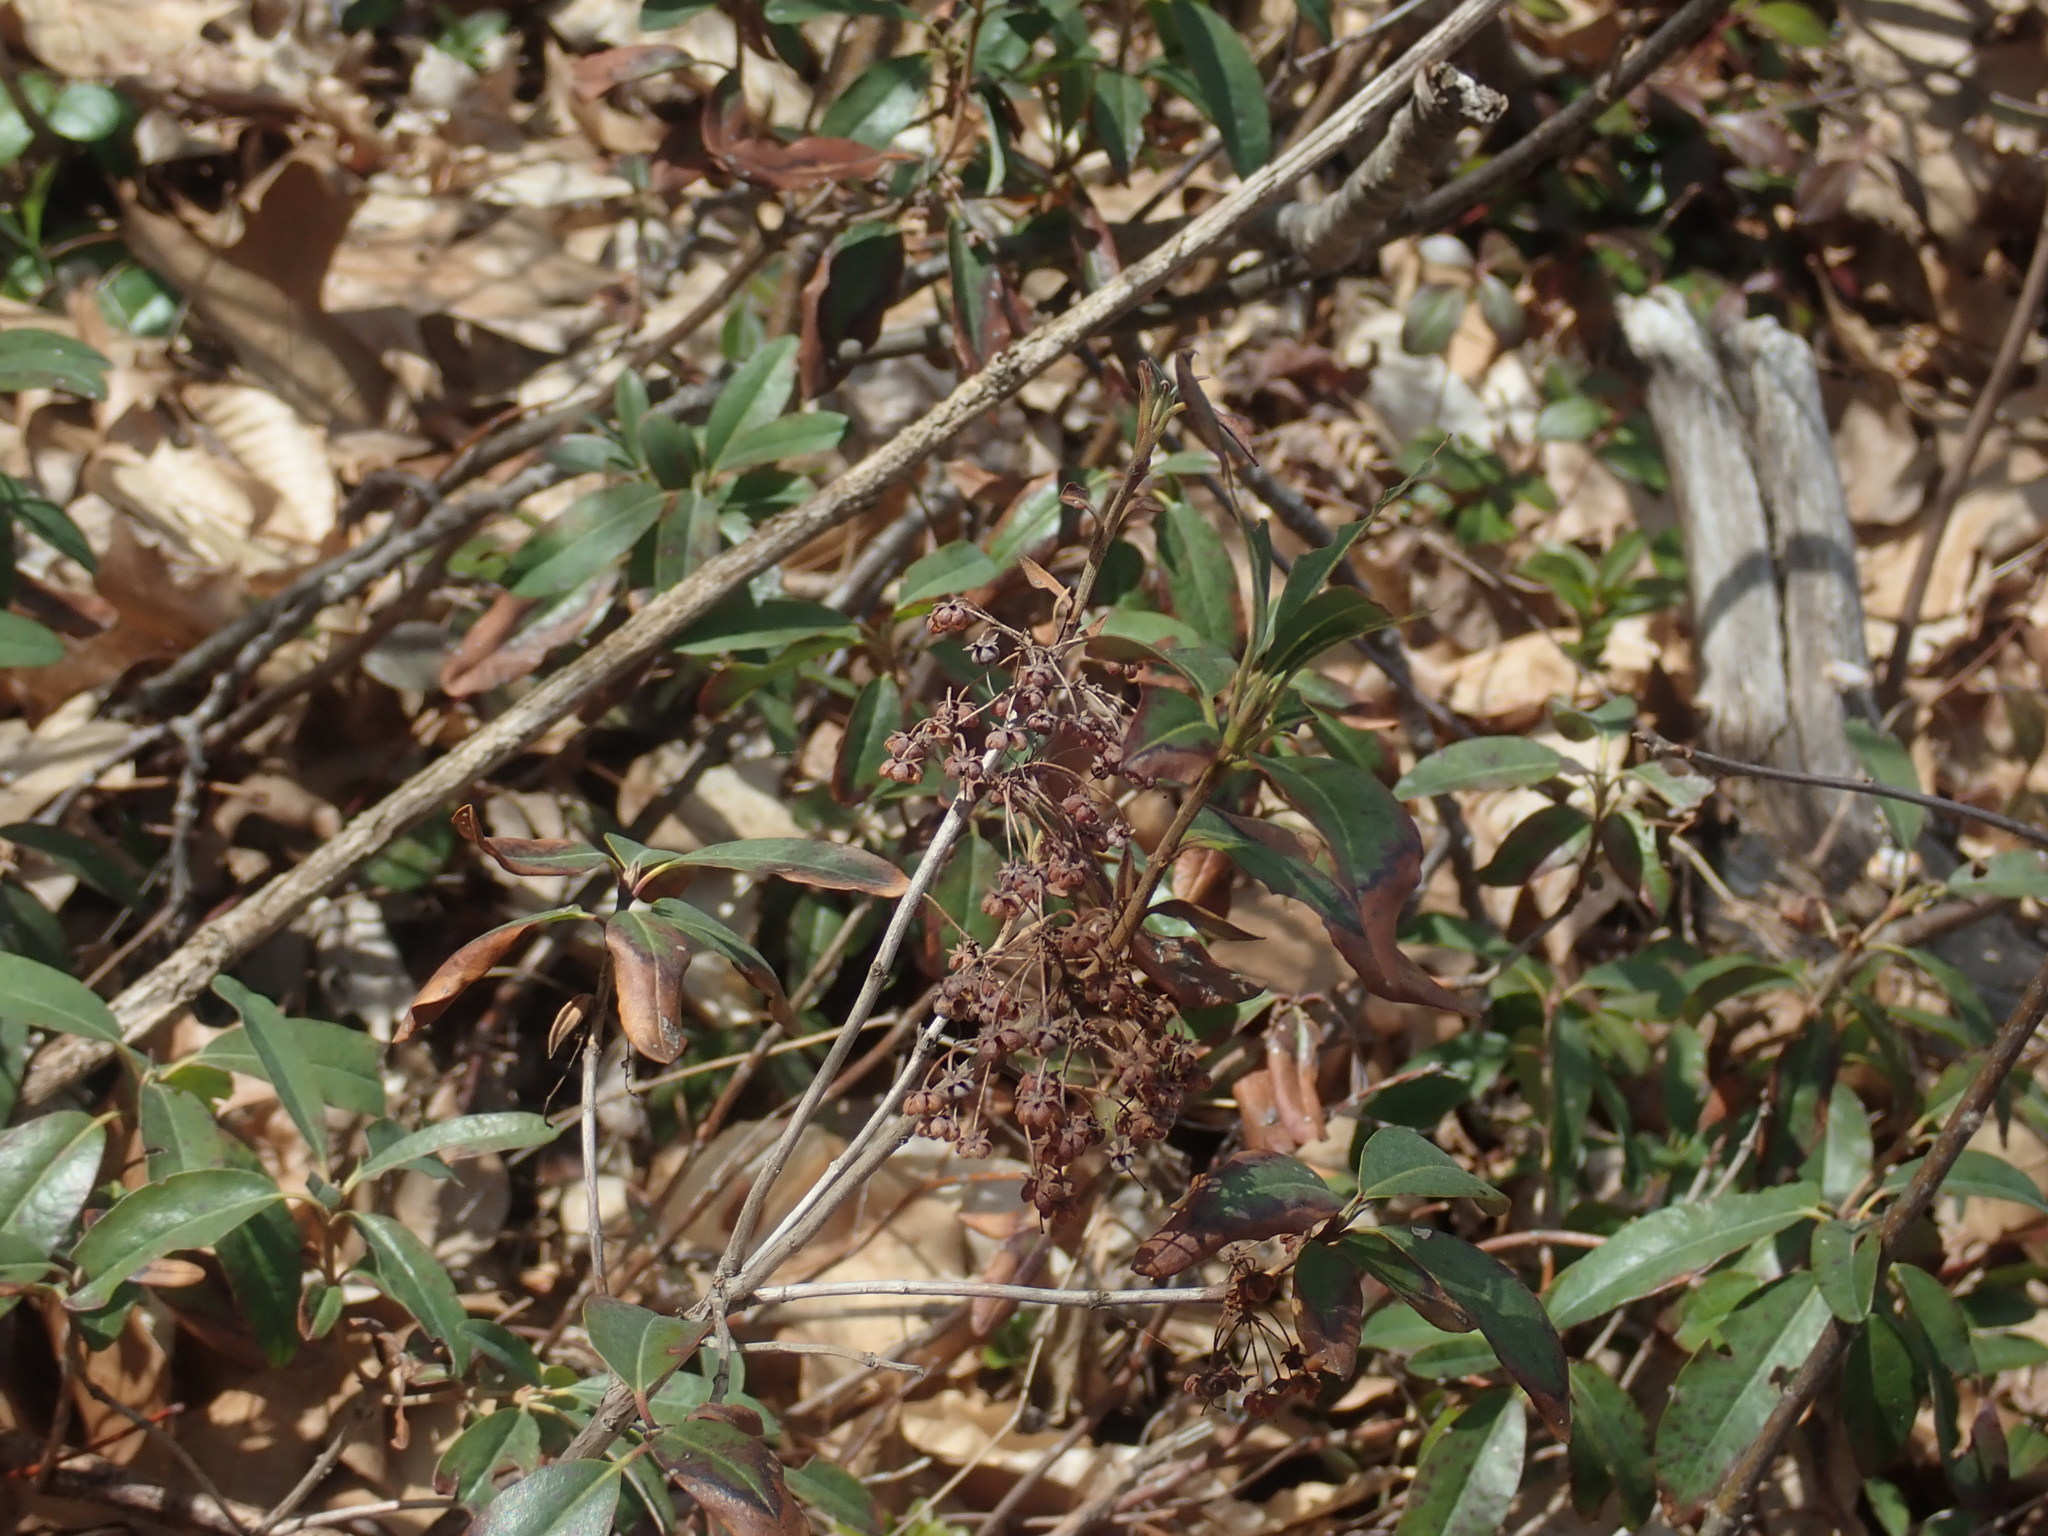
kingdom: Plantae
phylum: Tracheophyta
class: Magnoliopsida
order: Ericales
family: Ericaceae
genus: Kalmia
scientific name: Kalmia angustifolia
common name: Sheep-laurel
